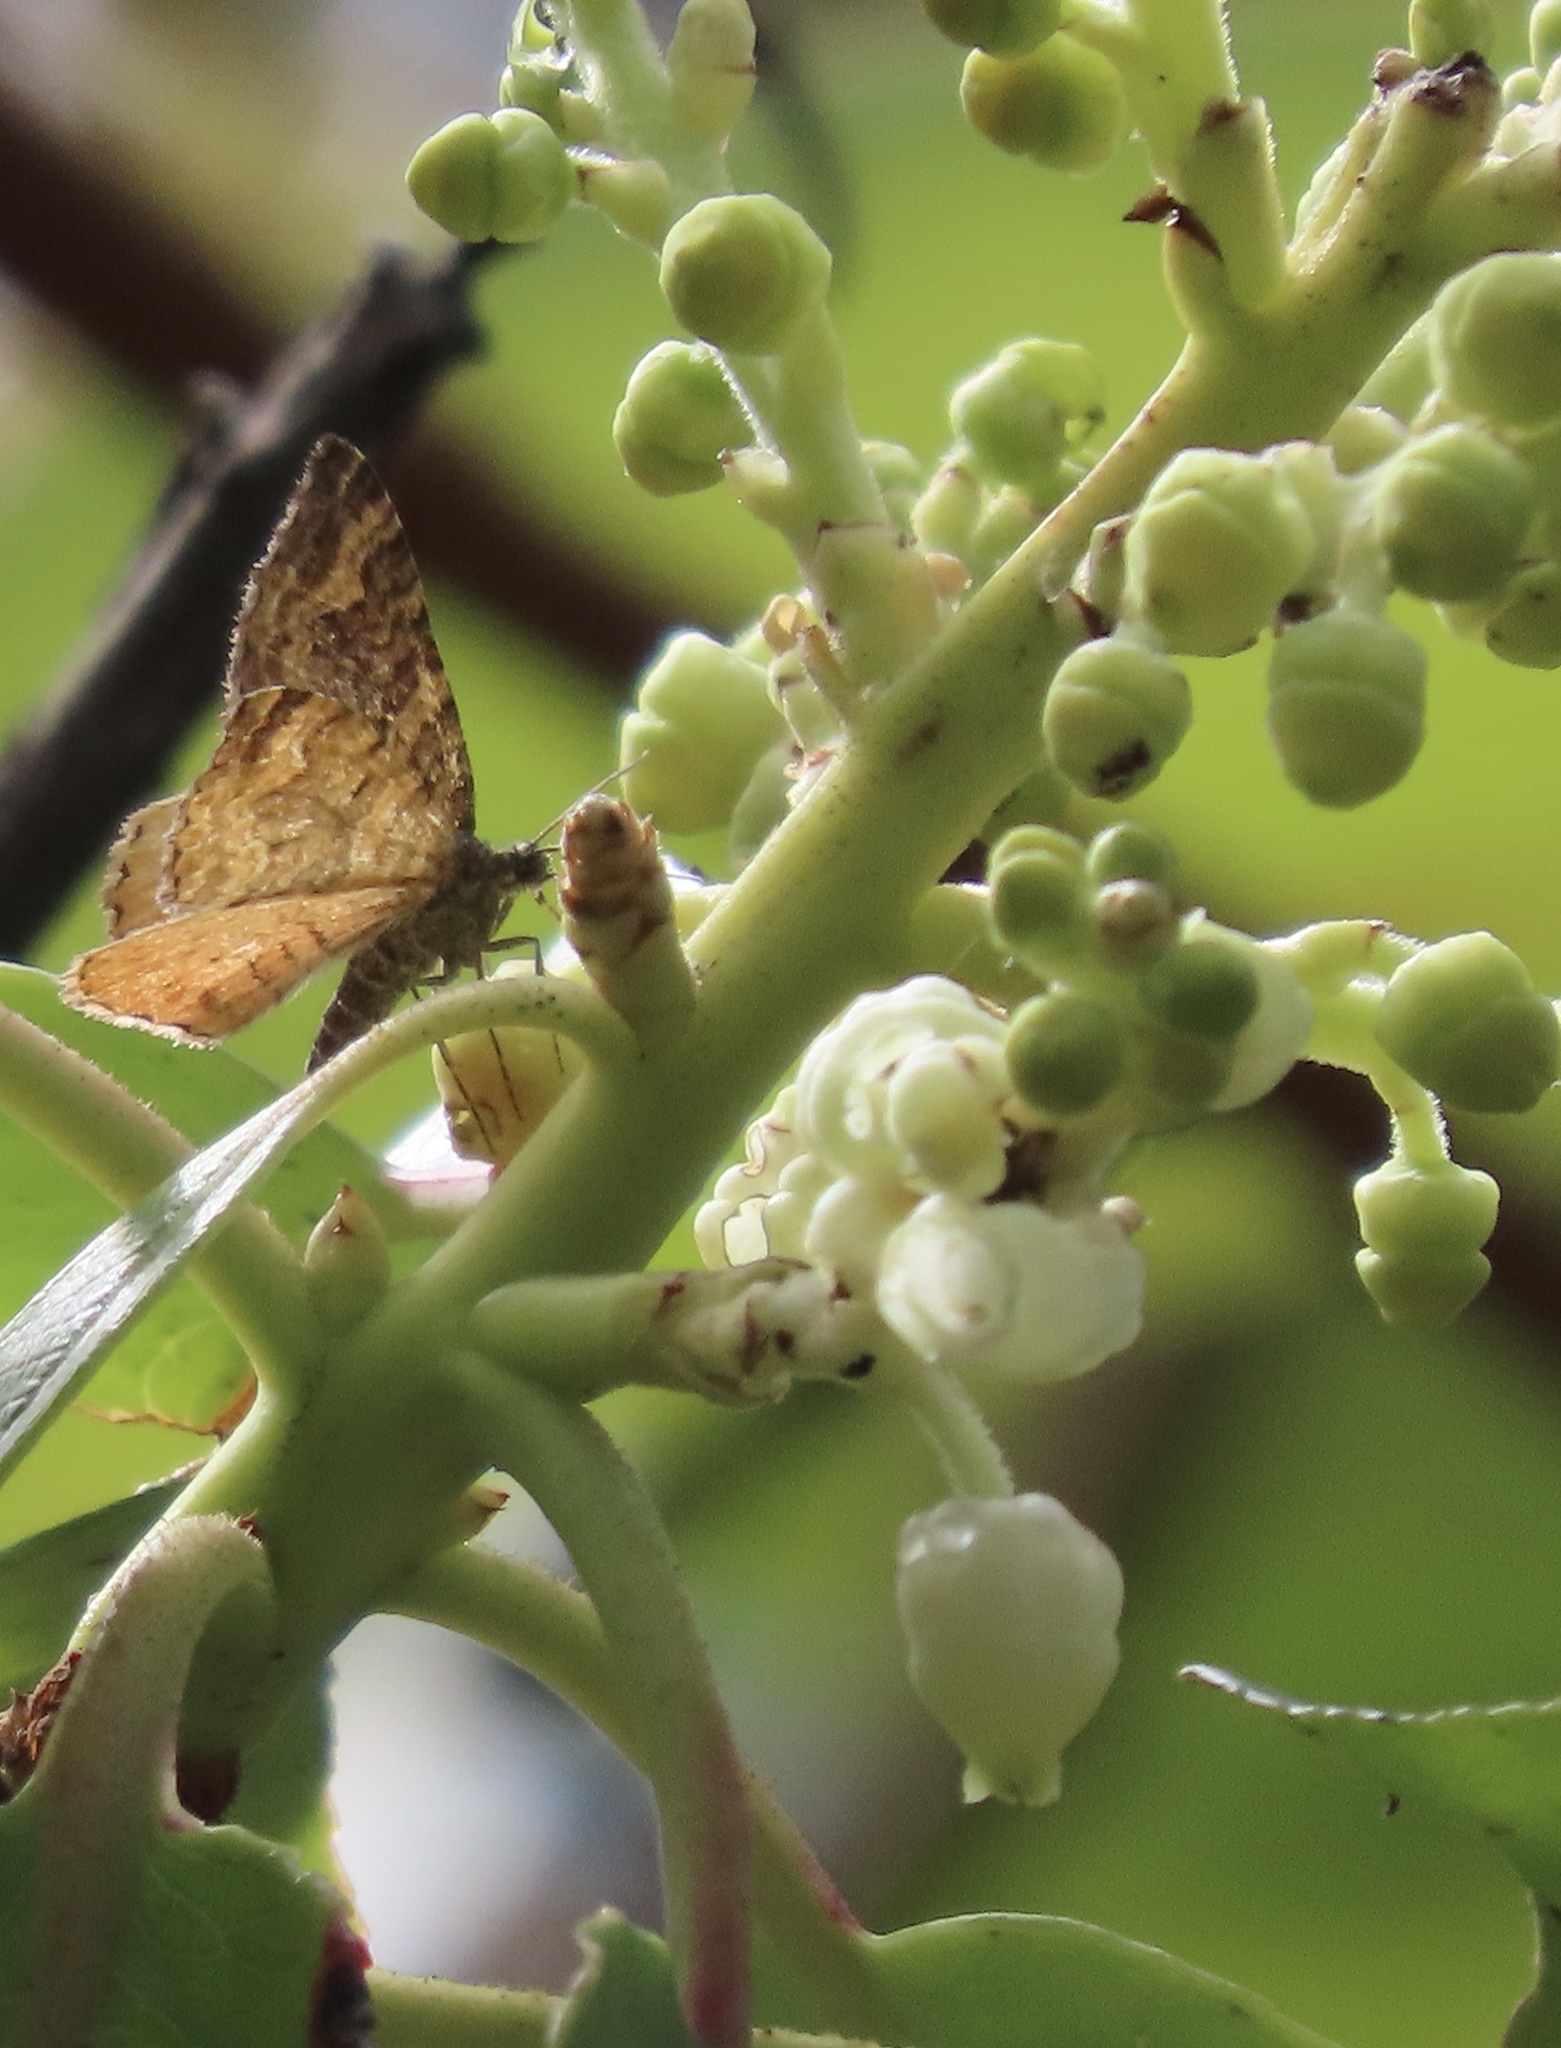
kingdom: Animalia
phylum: Arthropoda
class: Insecta
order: Lepidoptera
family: Geometridae
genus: Epirrhoe
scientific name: Epirrhoe plebeculata
